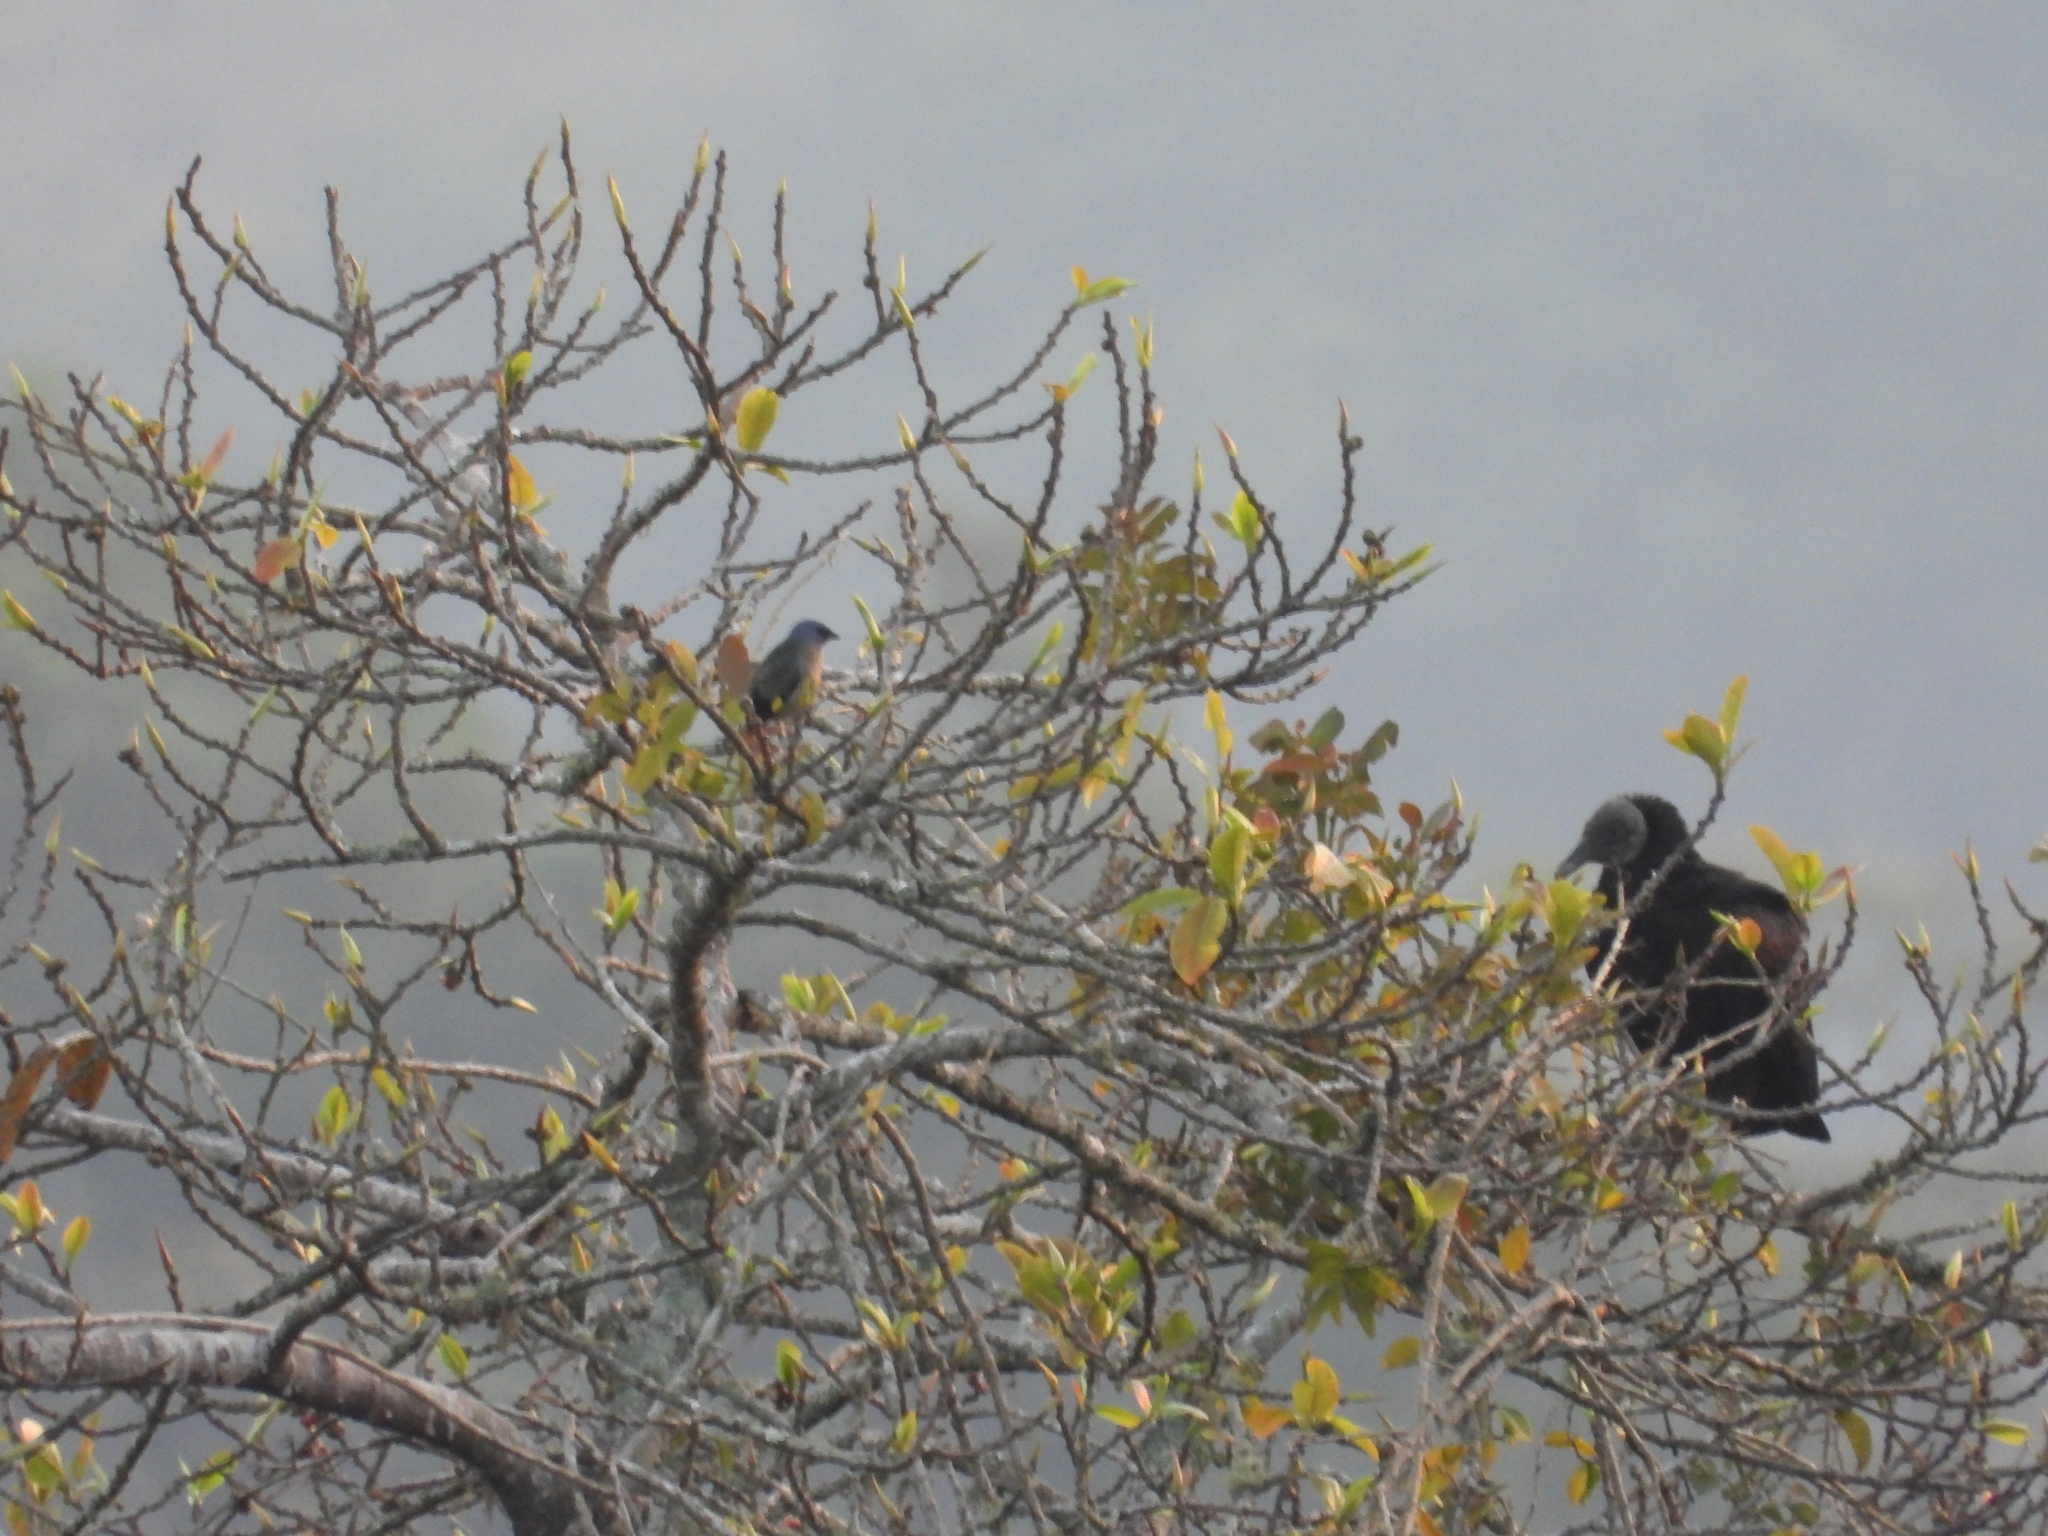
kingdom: Animalia
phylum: Chordata
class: Aves
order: Passeriformes
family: Thraupidae
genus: Thraupis
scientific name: Thraupis abbas
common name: Yellow-winged tanager
